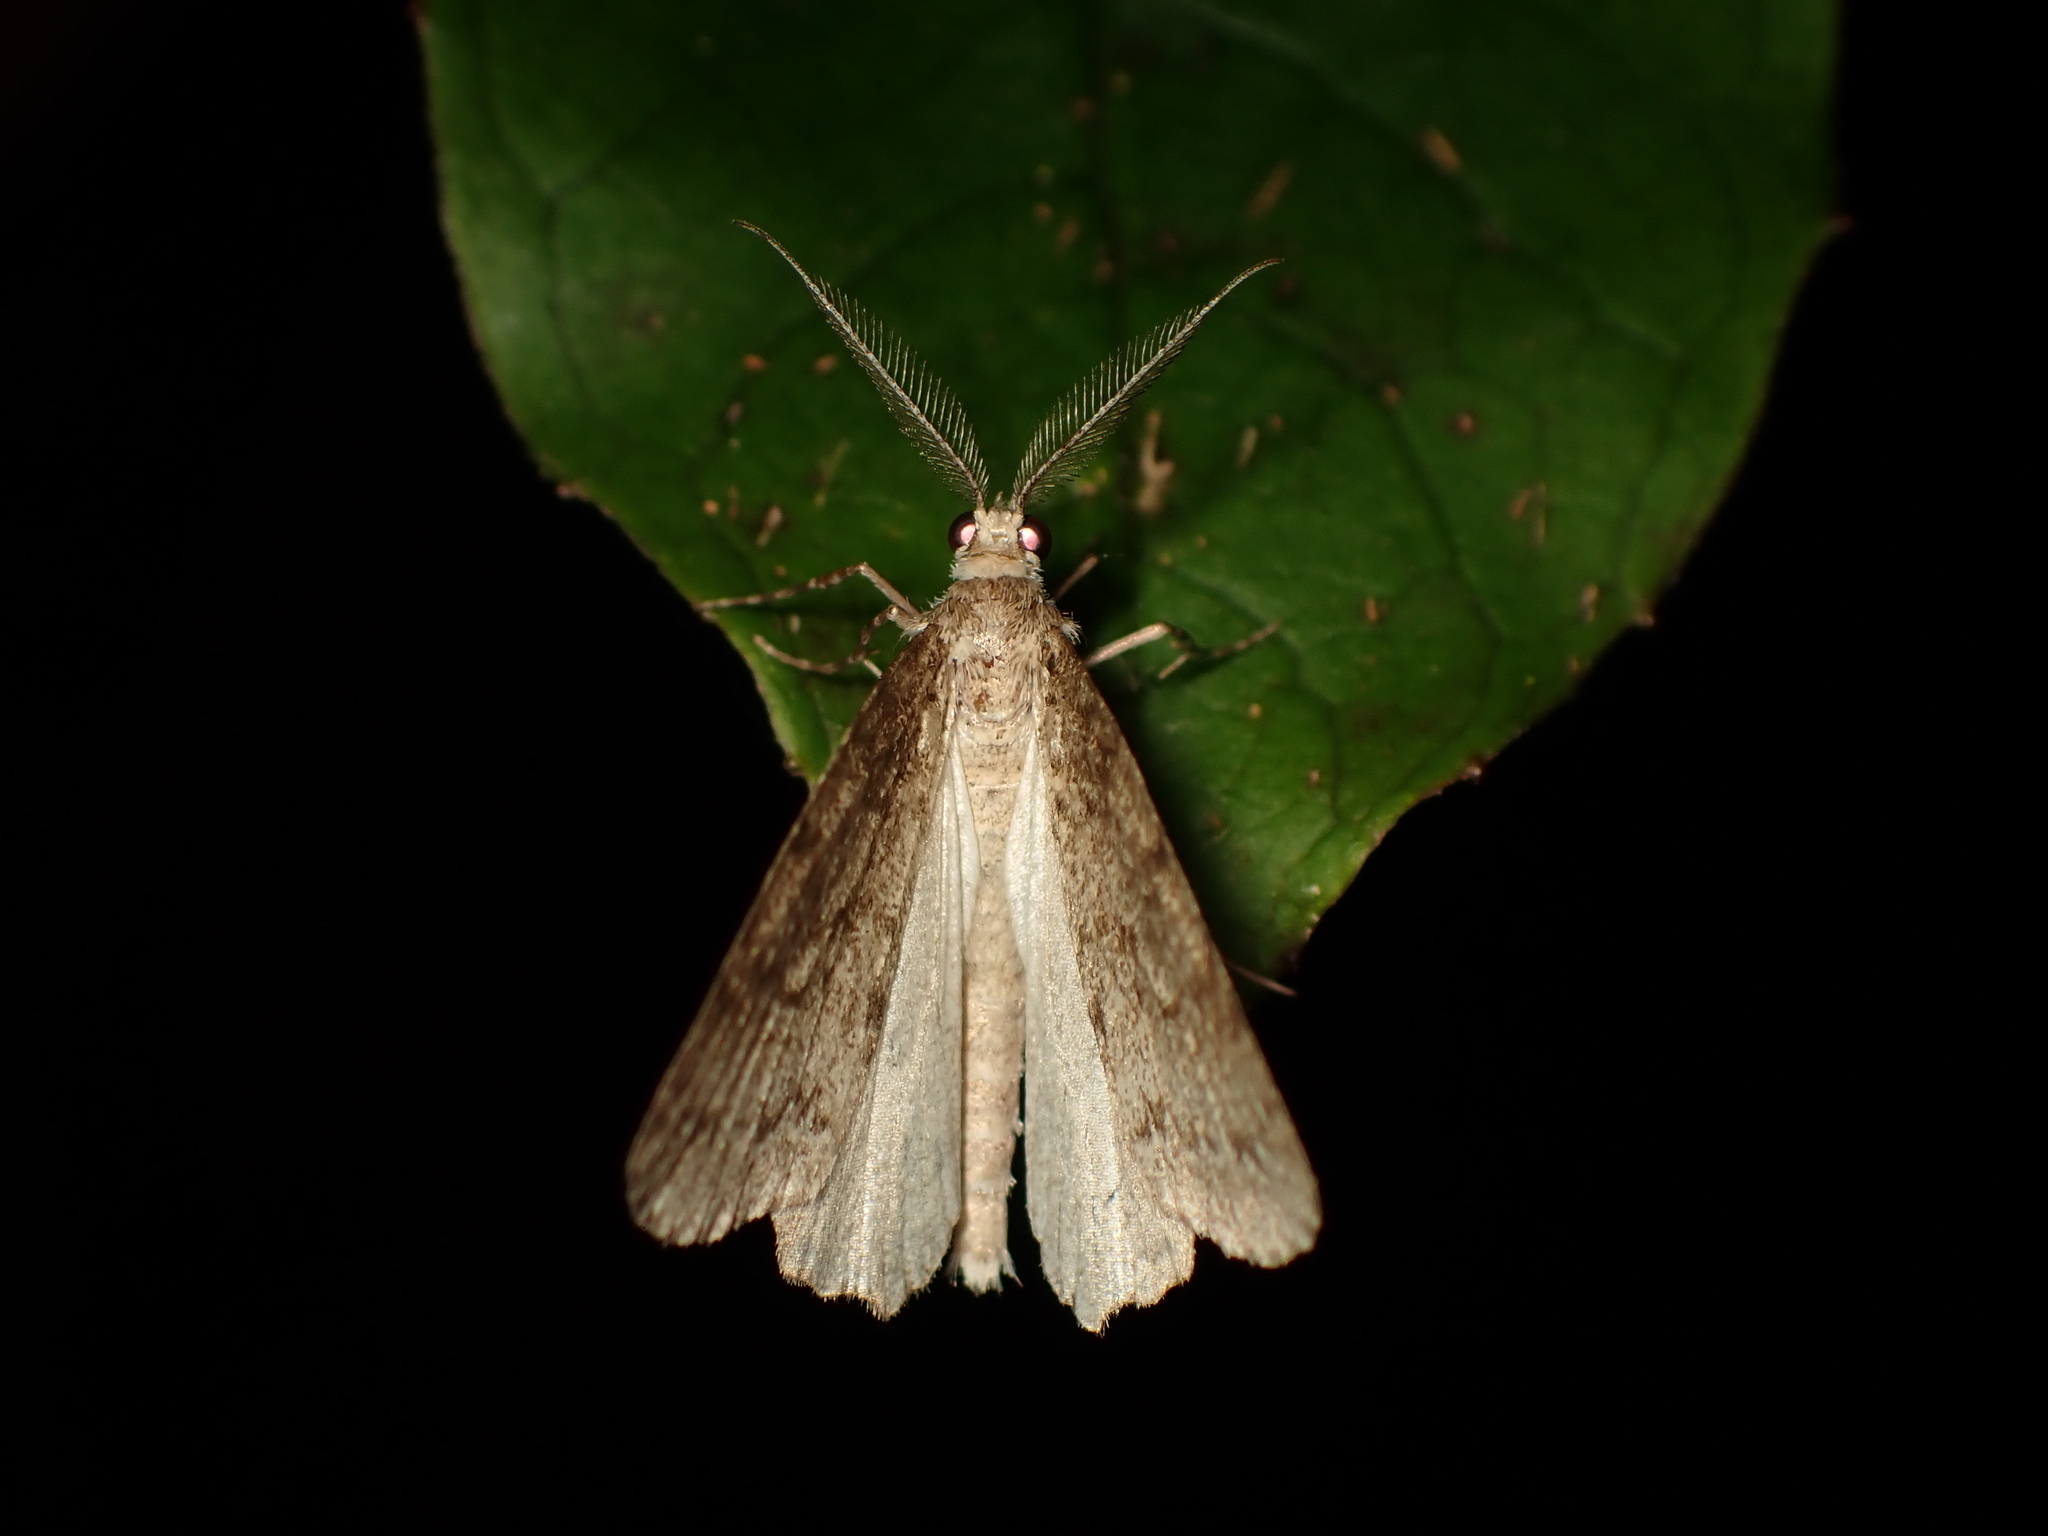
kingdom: Animalia
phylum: Arthropoda
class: Insecta
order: Lepidoptera
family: Geometridae
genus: Pseudocoremia
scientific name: Pseudocoremia fenerata
